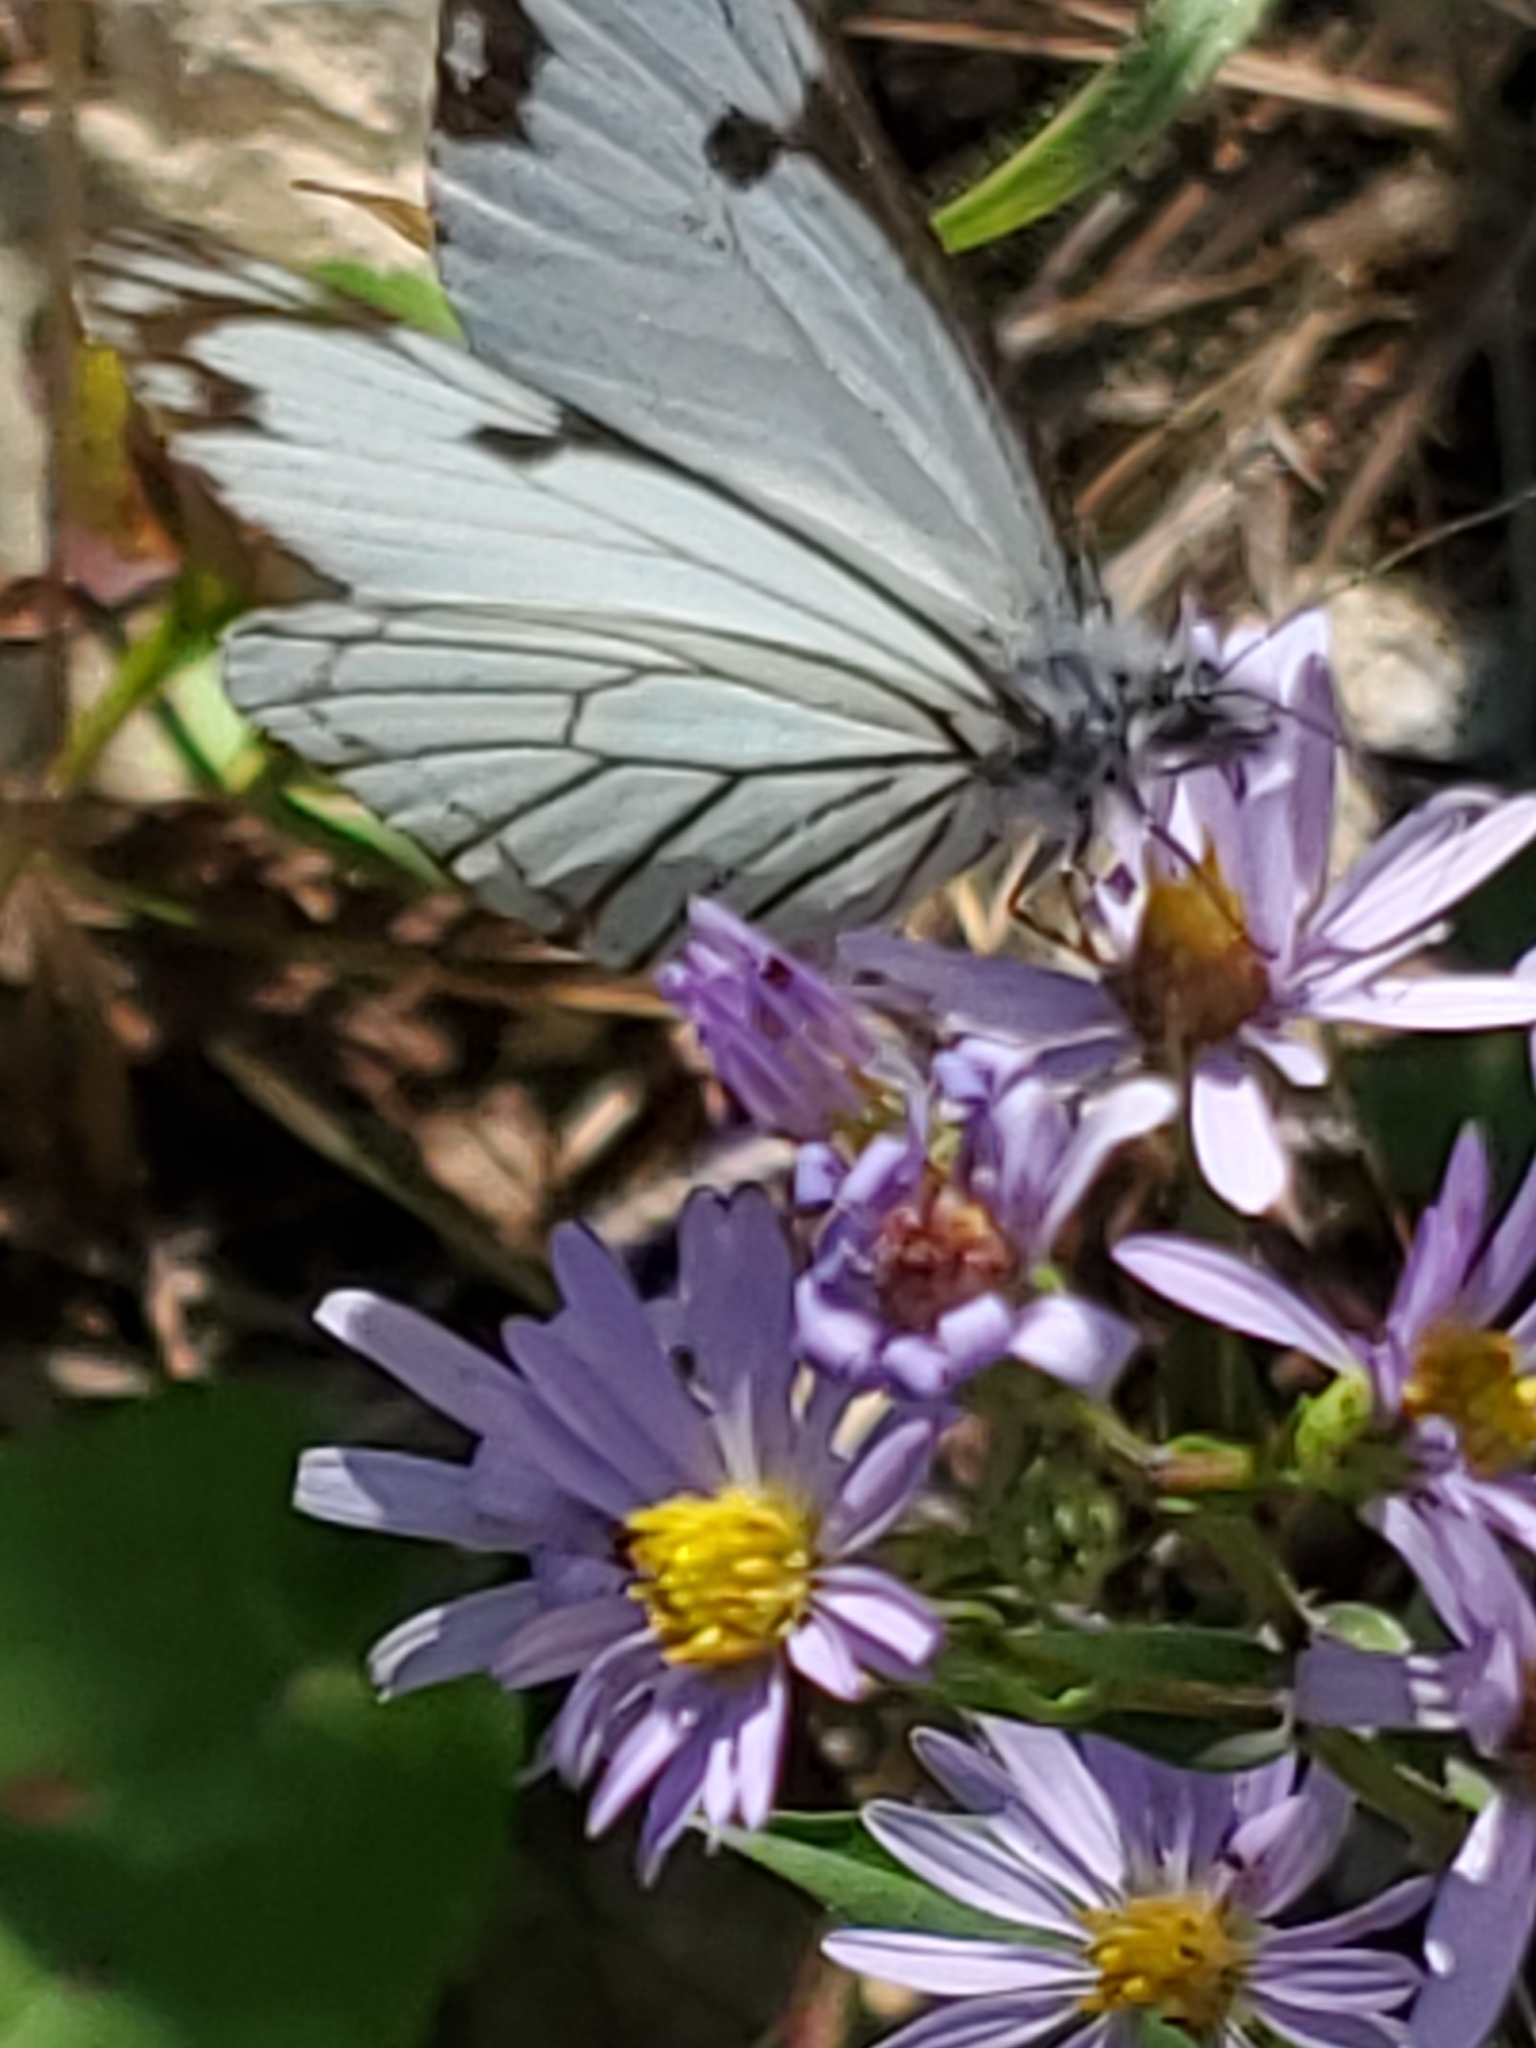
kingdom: Animalia
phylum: Arthropoda
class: Insecta
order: Lepidoptera
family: Pieridae
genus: Neophasia
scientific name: Neophasia menapia
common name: Pine white
